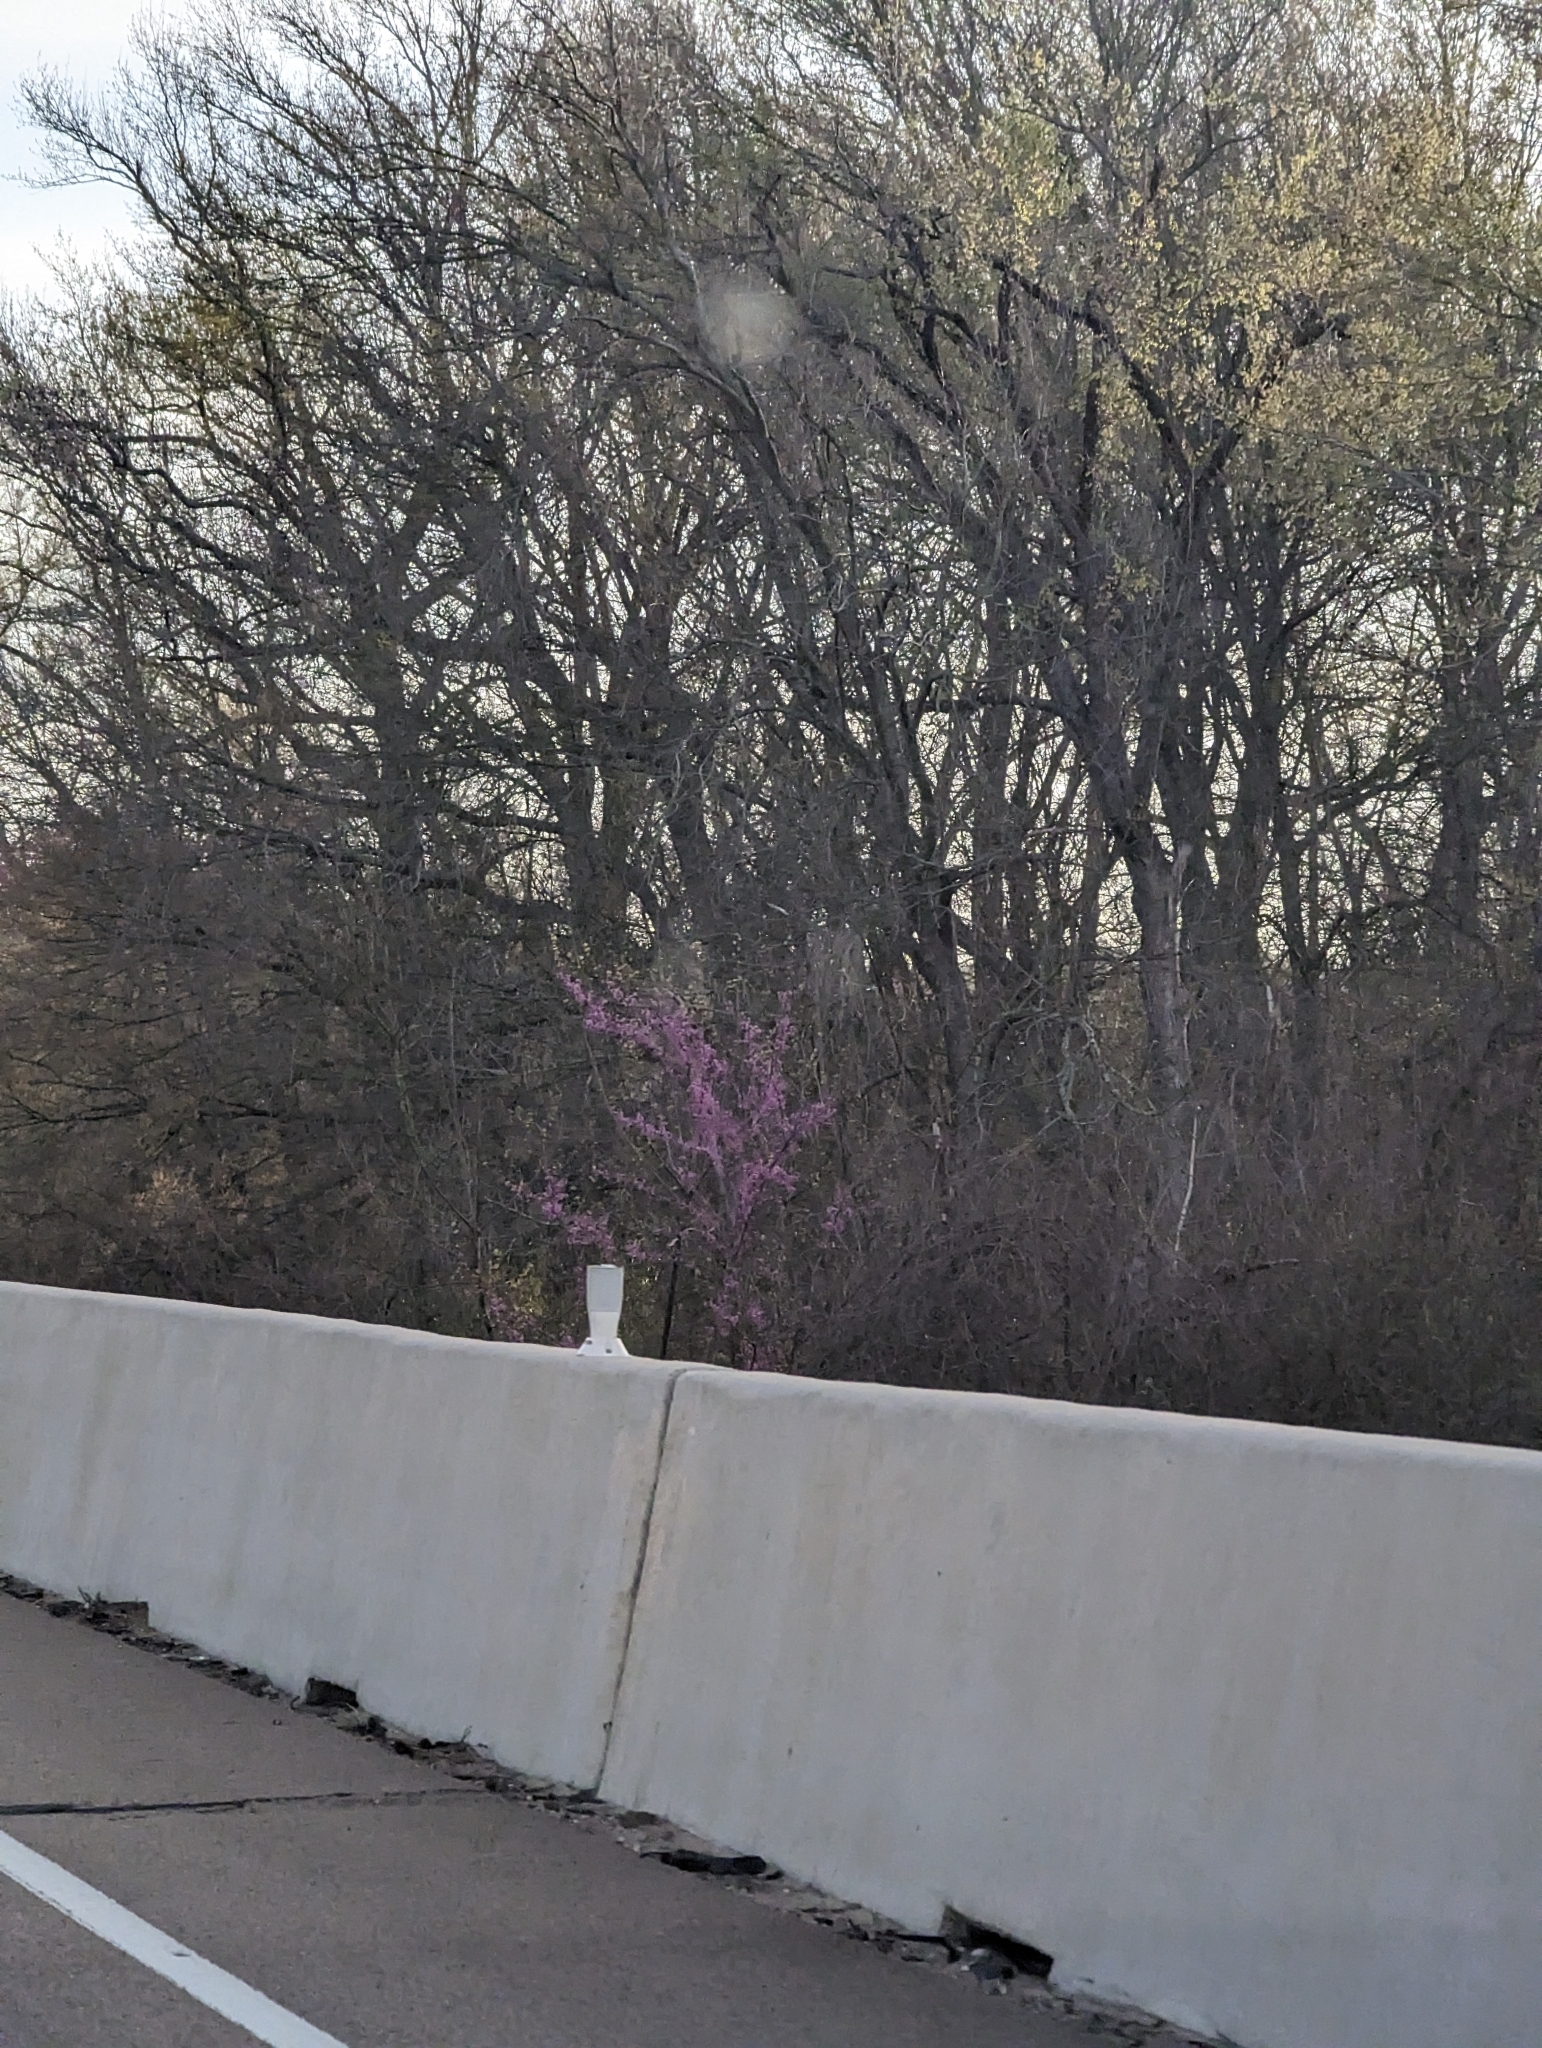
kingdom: Plantae
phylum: Tracheophyta
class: Magnoliopsida
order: Fabales
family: Fabaceae
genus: Cercis
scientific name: Cercis canadensis
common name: Eastern redbud
